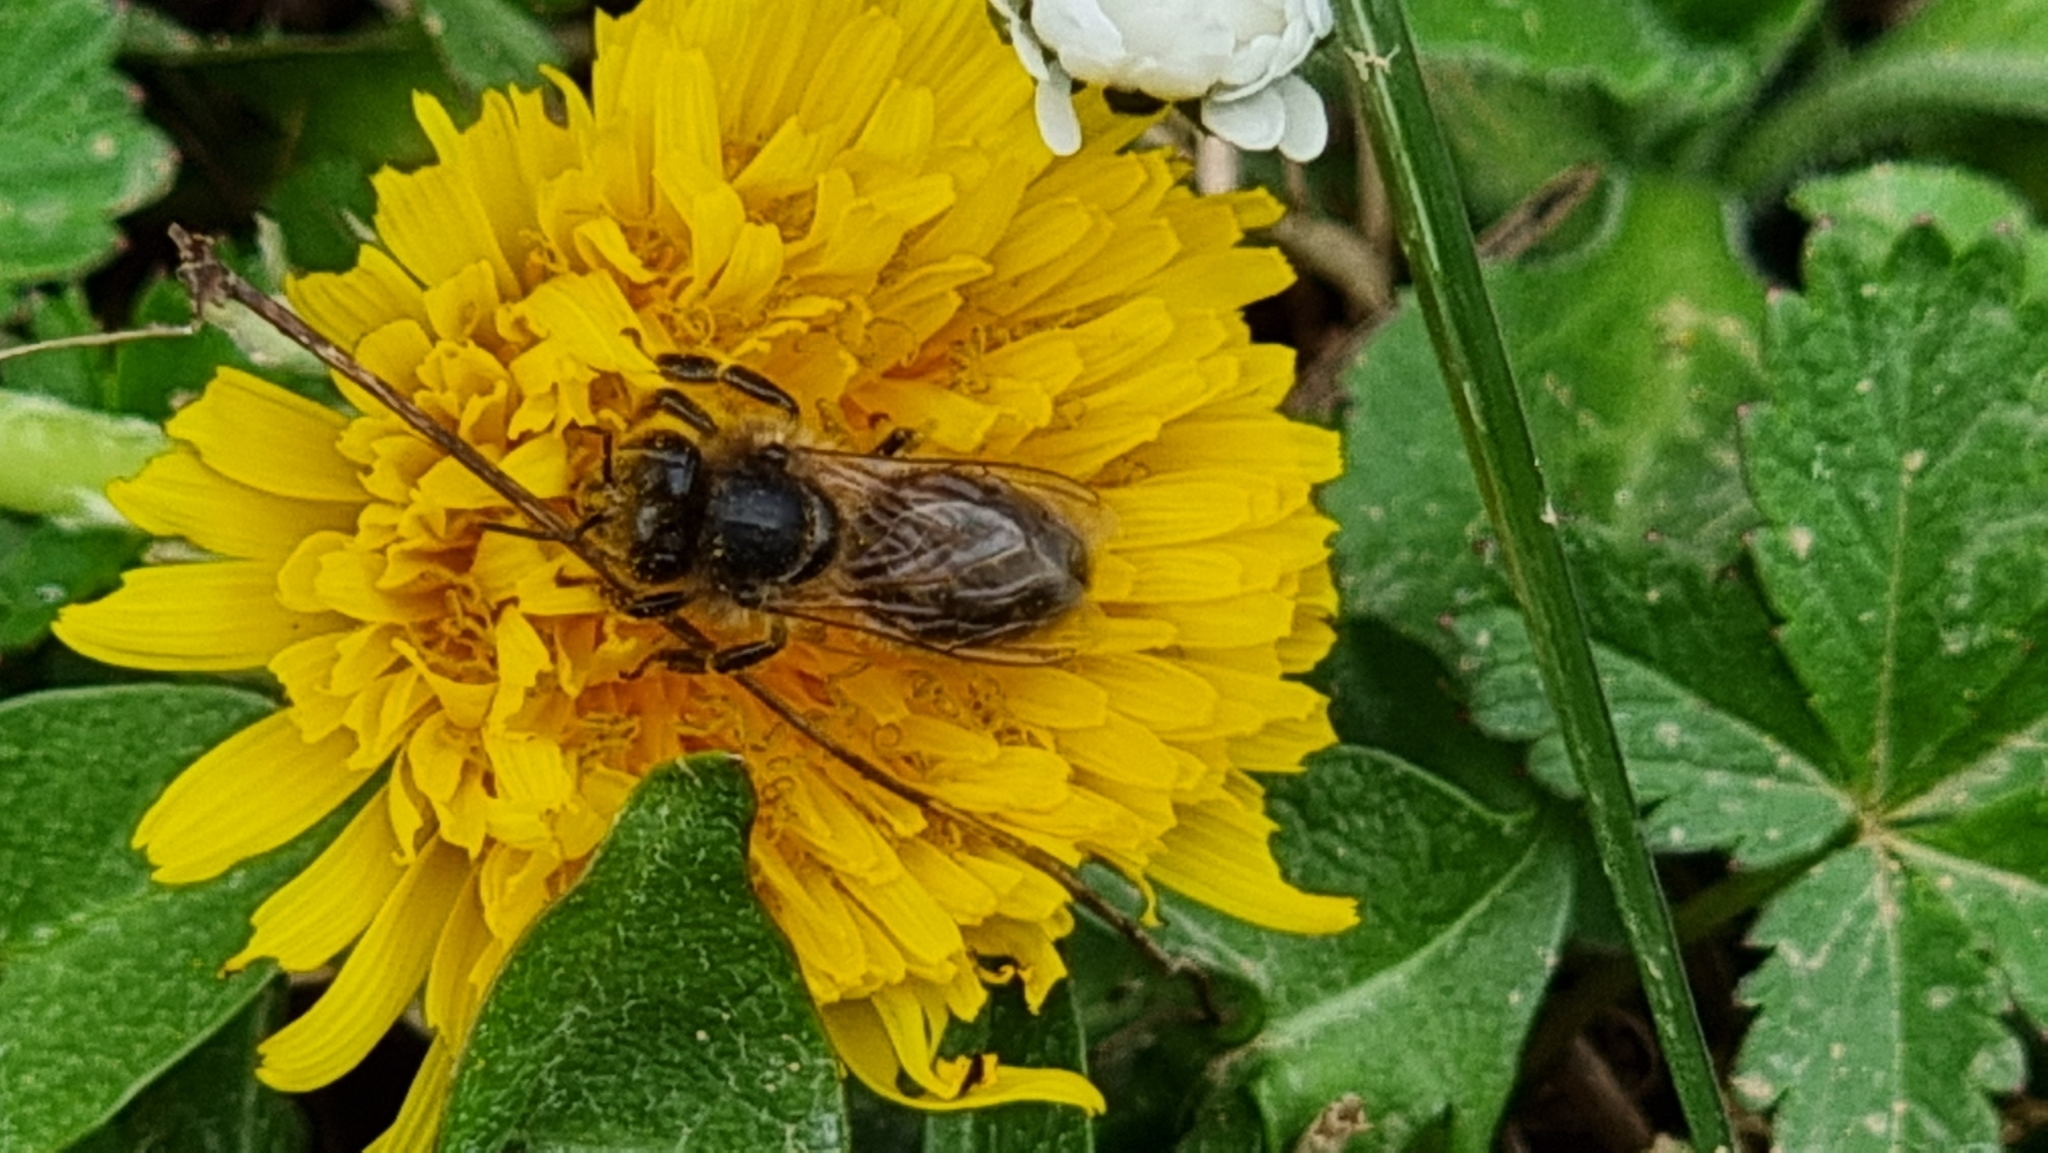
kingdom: Animalia
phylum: Arthropoda
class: Insecta
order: Hymenoptera
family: Apidae
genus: Apis
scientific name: Apis mellifera
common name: Honey bee
